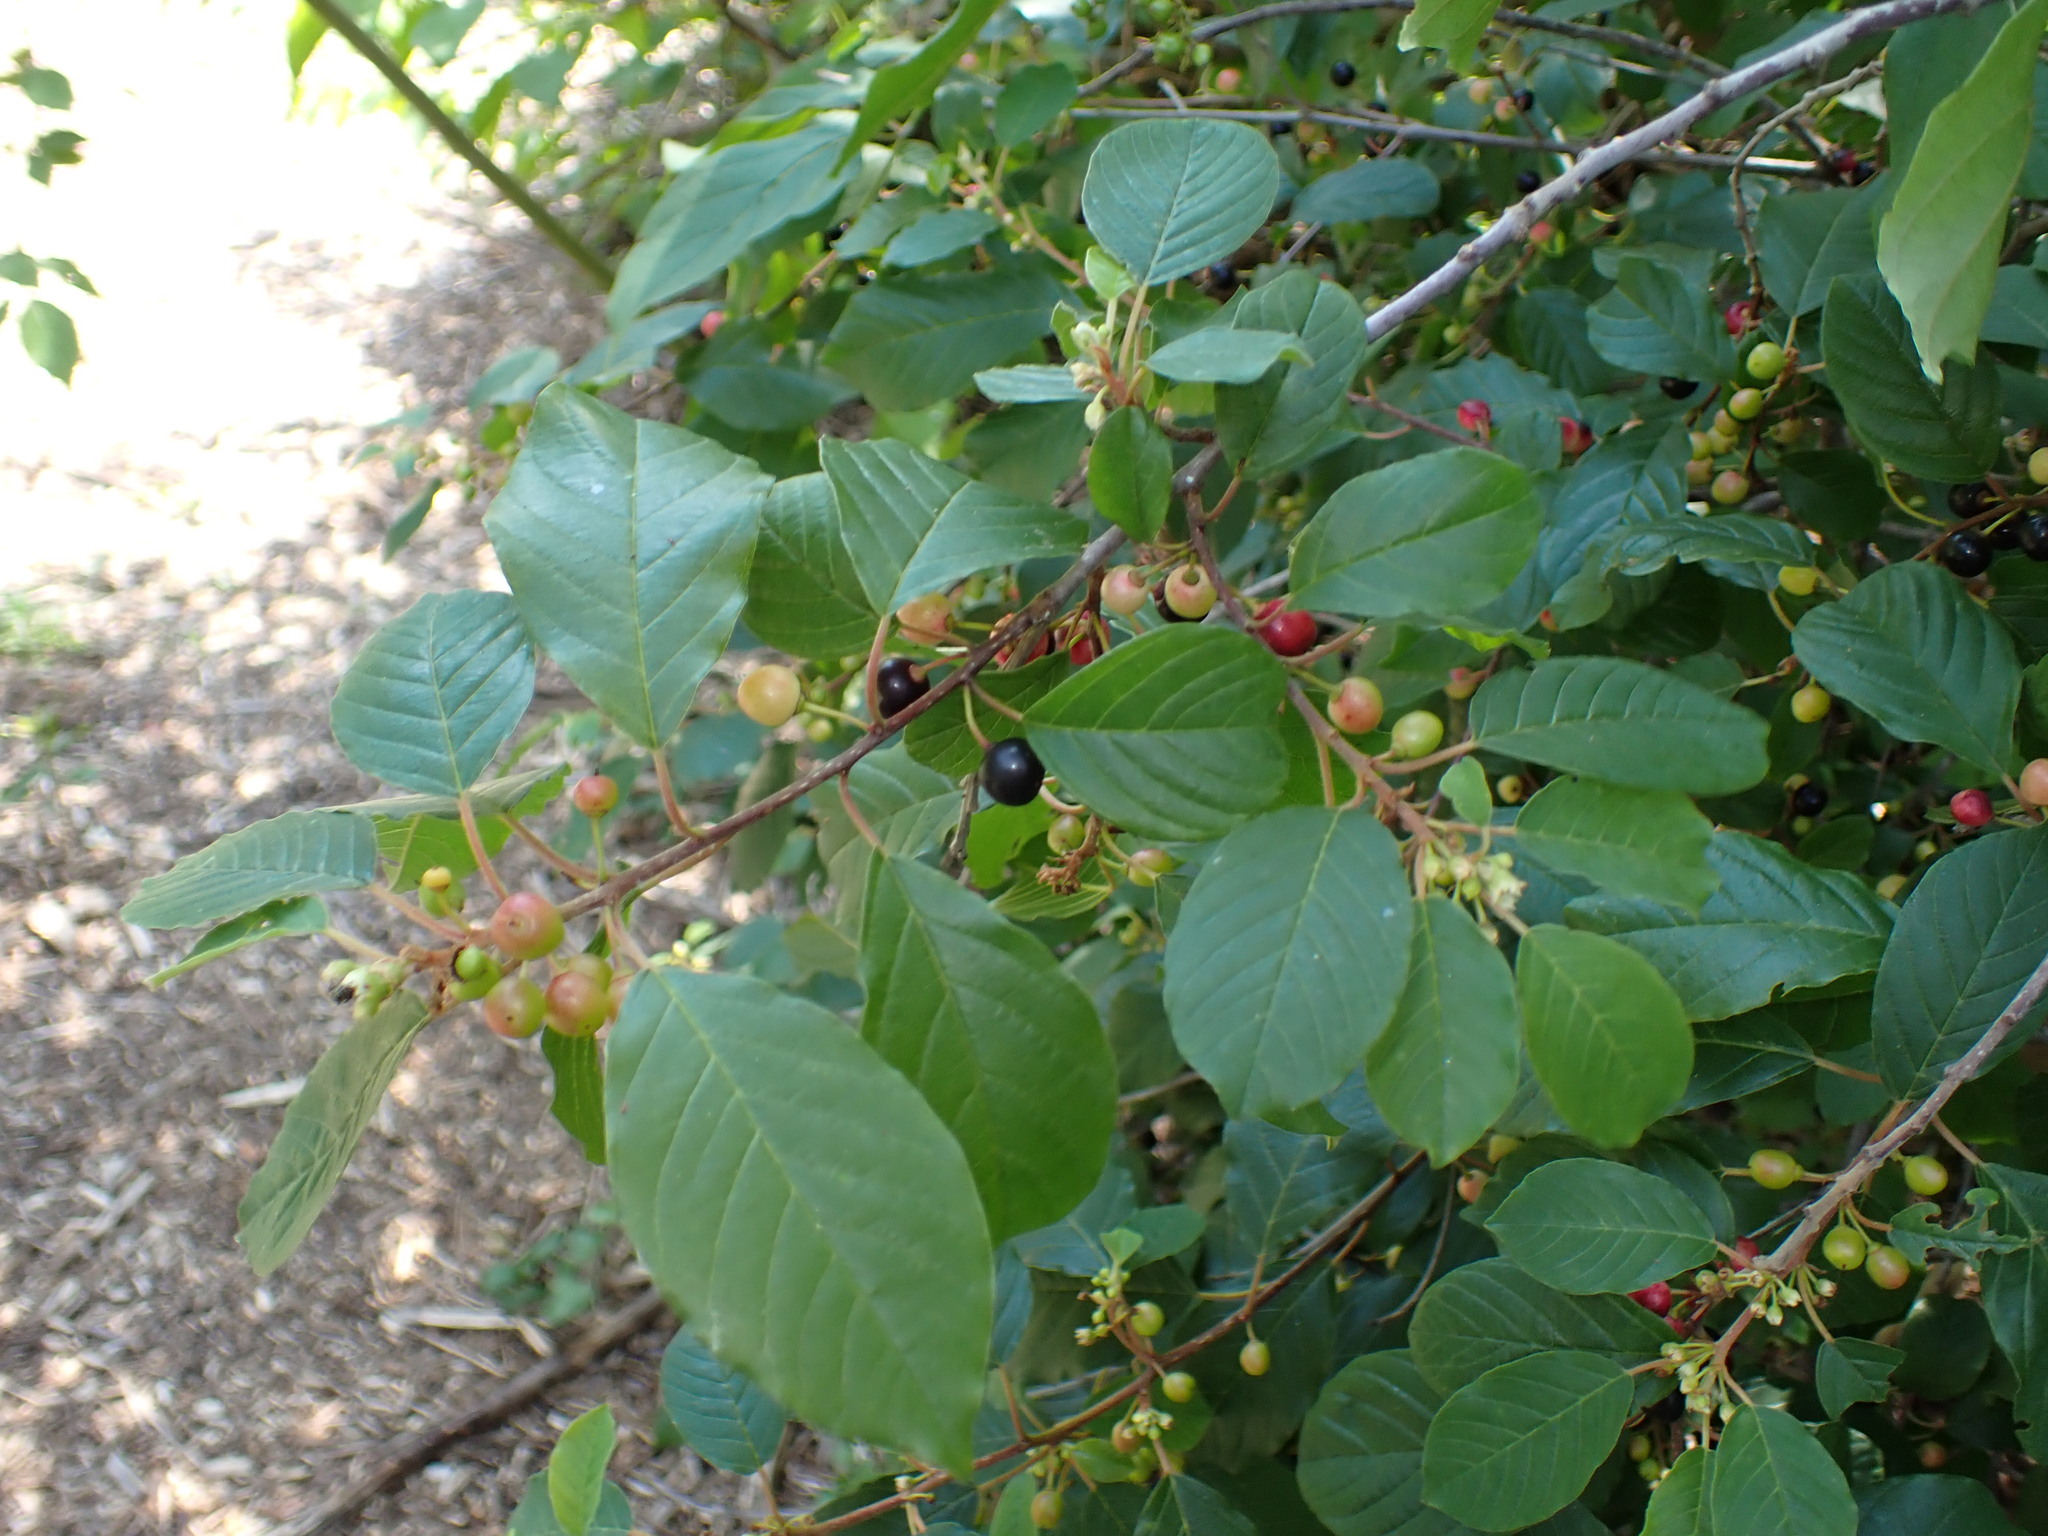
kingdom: Plantae
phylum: Tracheophyta
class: Magnoliopsida
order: Rosales
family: Rhamnaceae
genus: Frangula
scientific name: Frangula alnus
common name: Alder buckthorn
